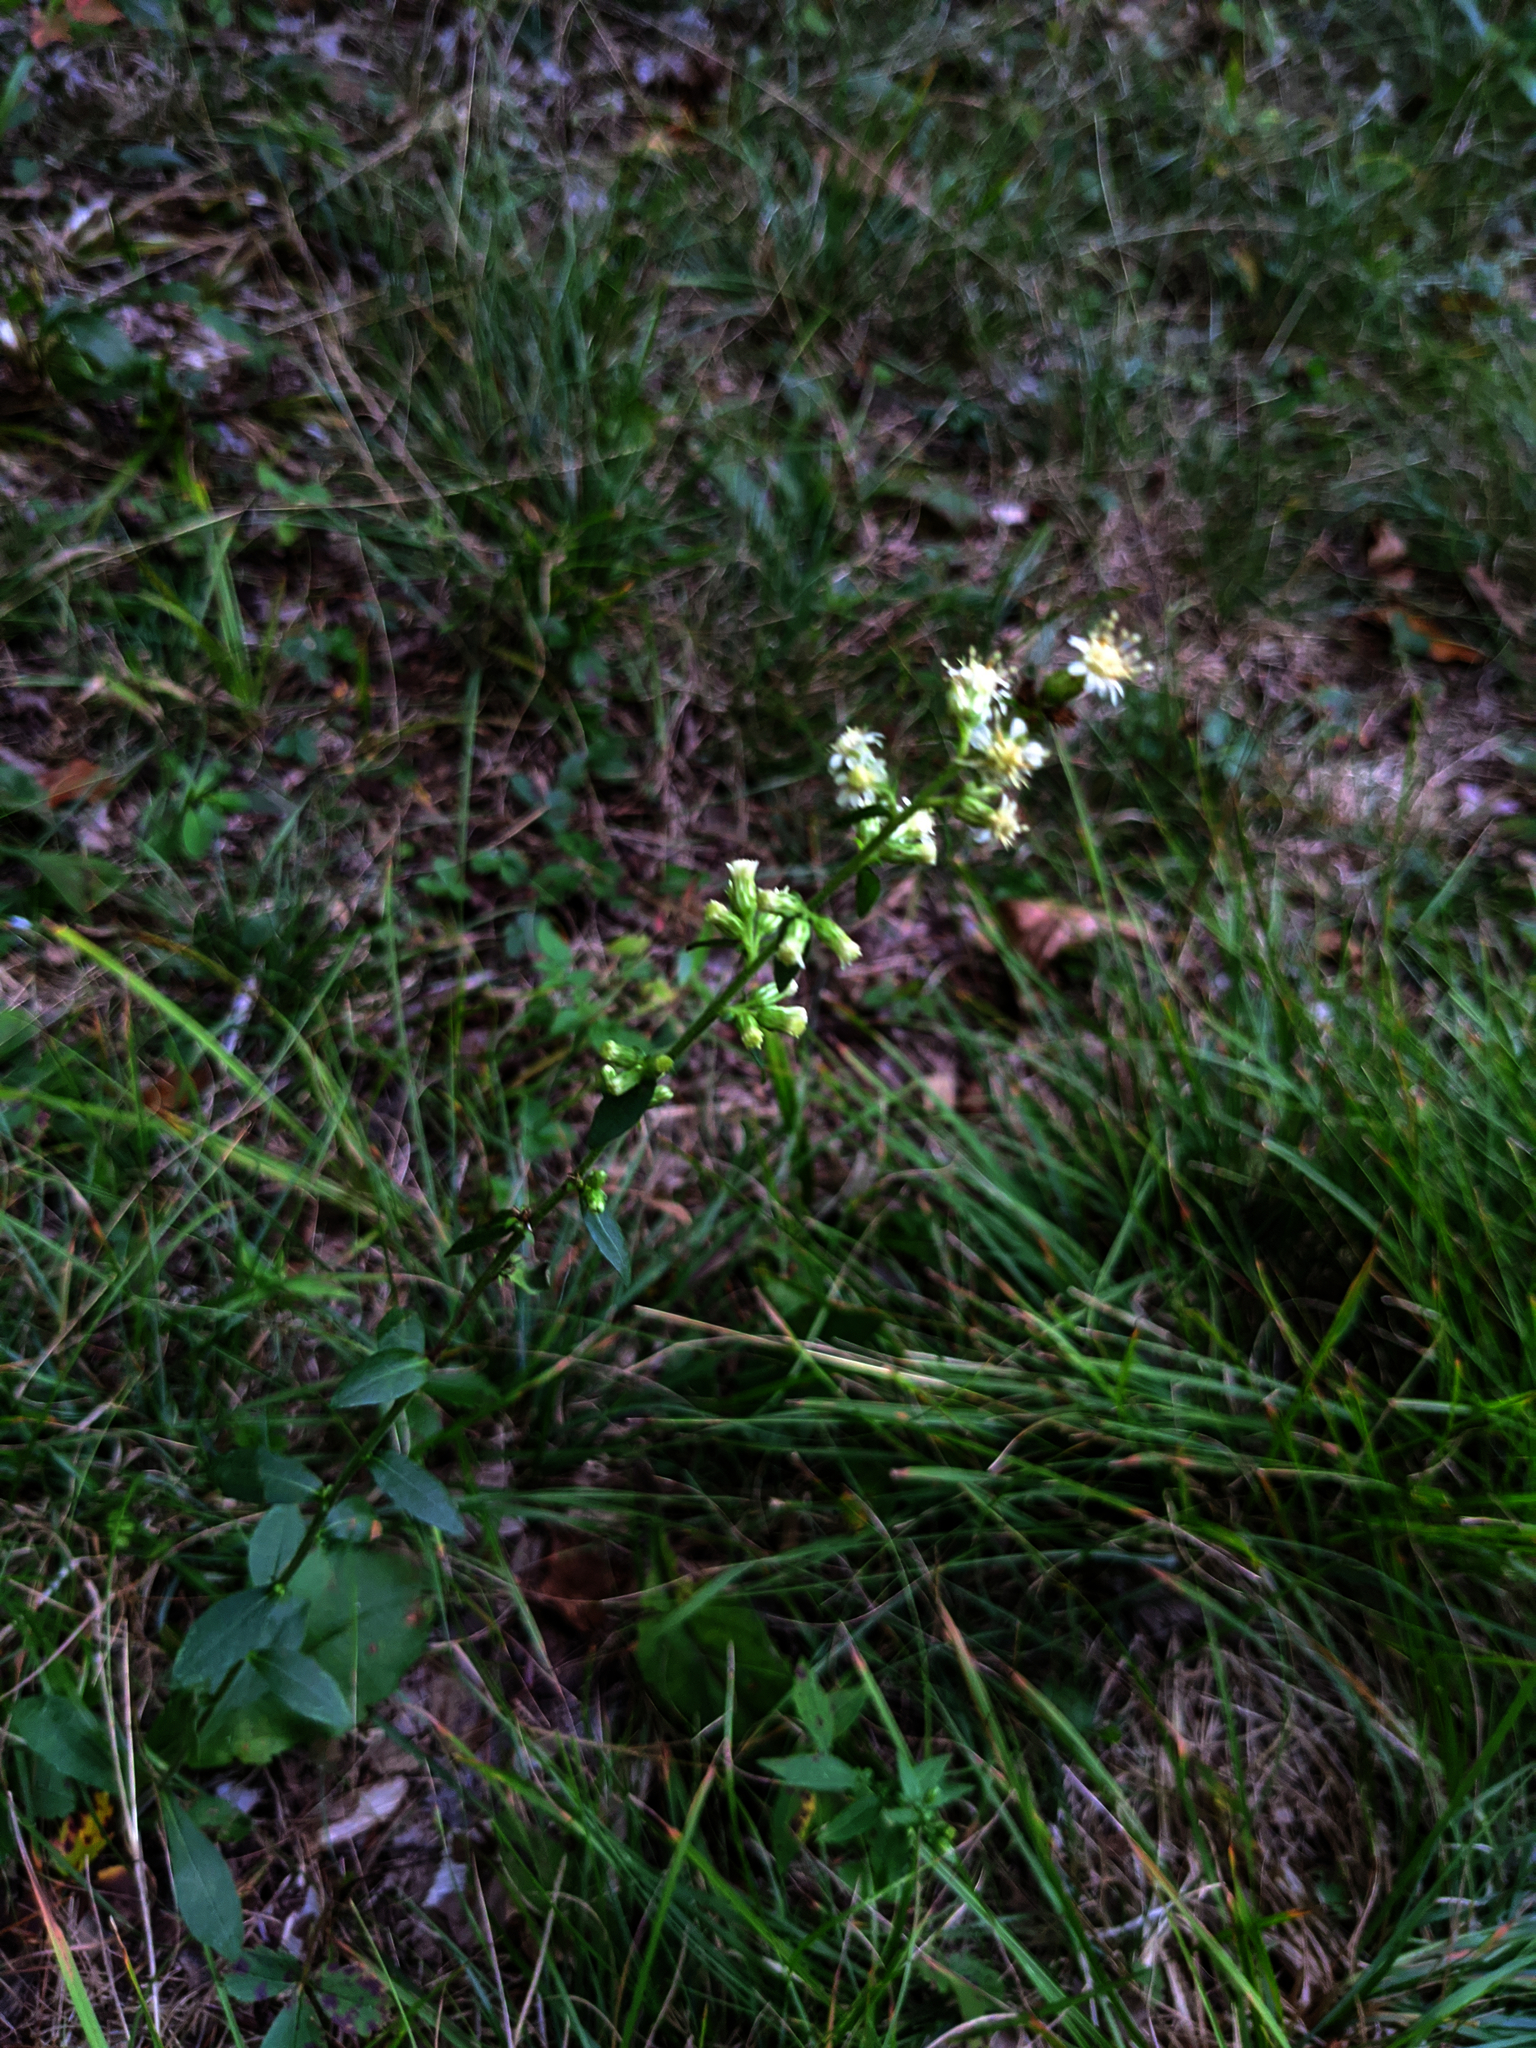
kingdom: Plantae
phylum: Tracheophyta
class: Magnoliopsida
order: Asterales
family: Asteraceae
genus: Solidago
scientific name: Solidago bicolor
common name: Silverrod
